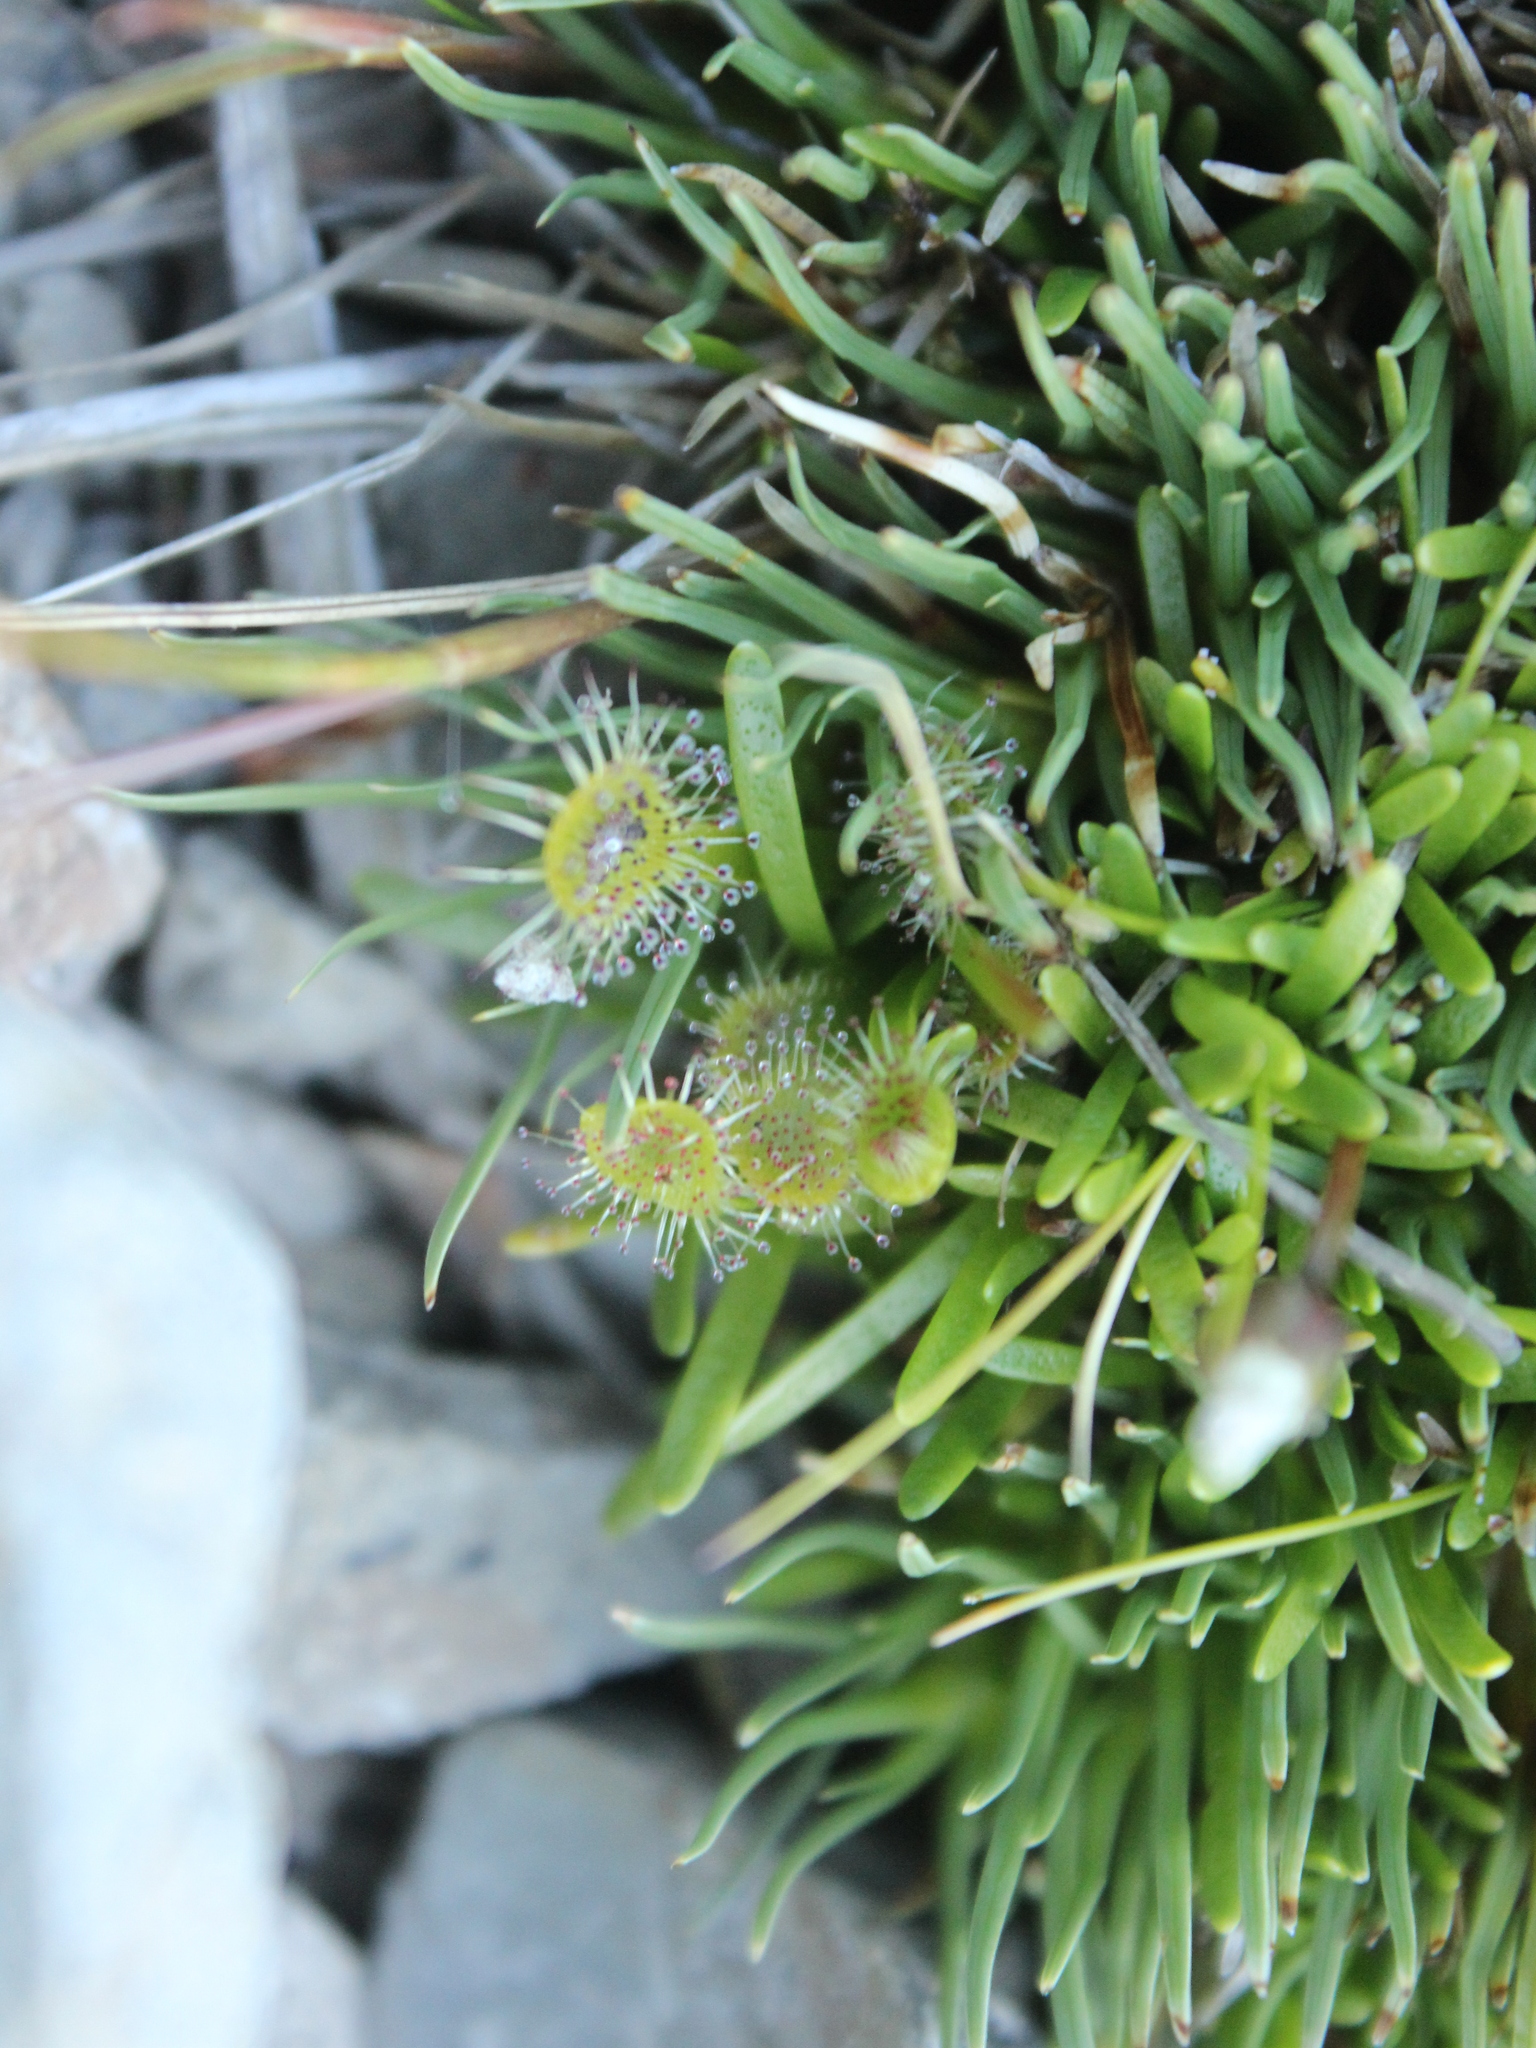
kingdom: Plantae
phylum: Tracheophyta
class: Magnoliopsida
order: Caryophyllales
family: Droseraceae
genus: Drosera
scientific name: Drosera stenopetala
